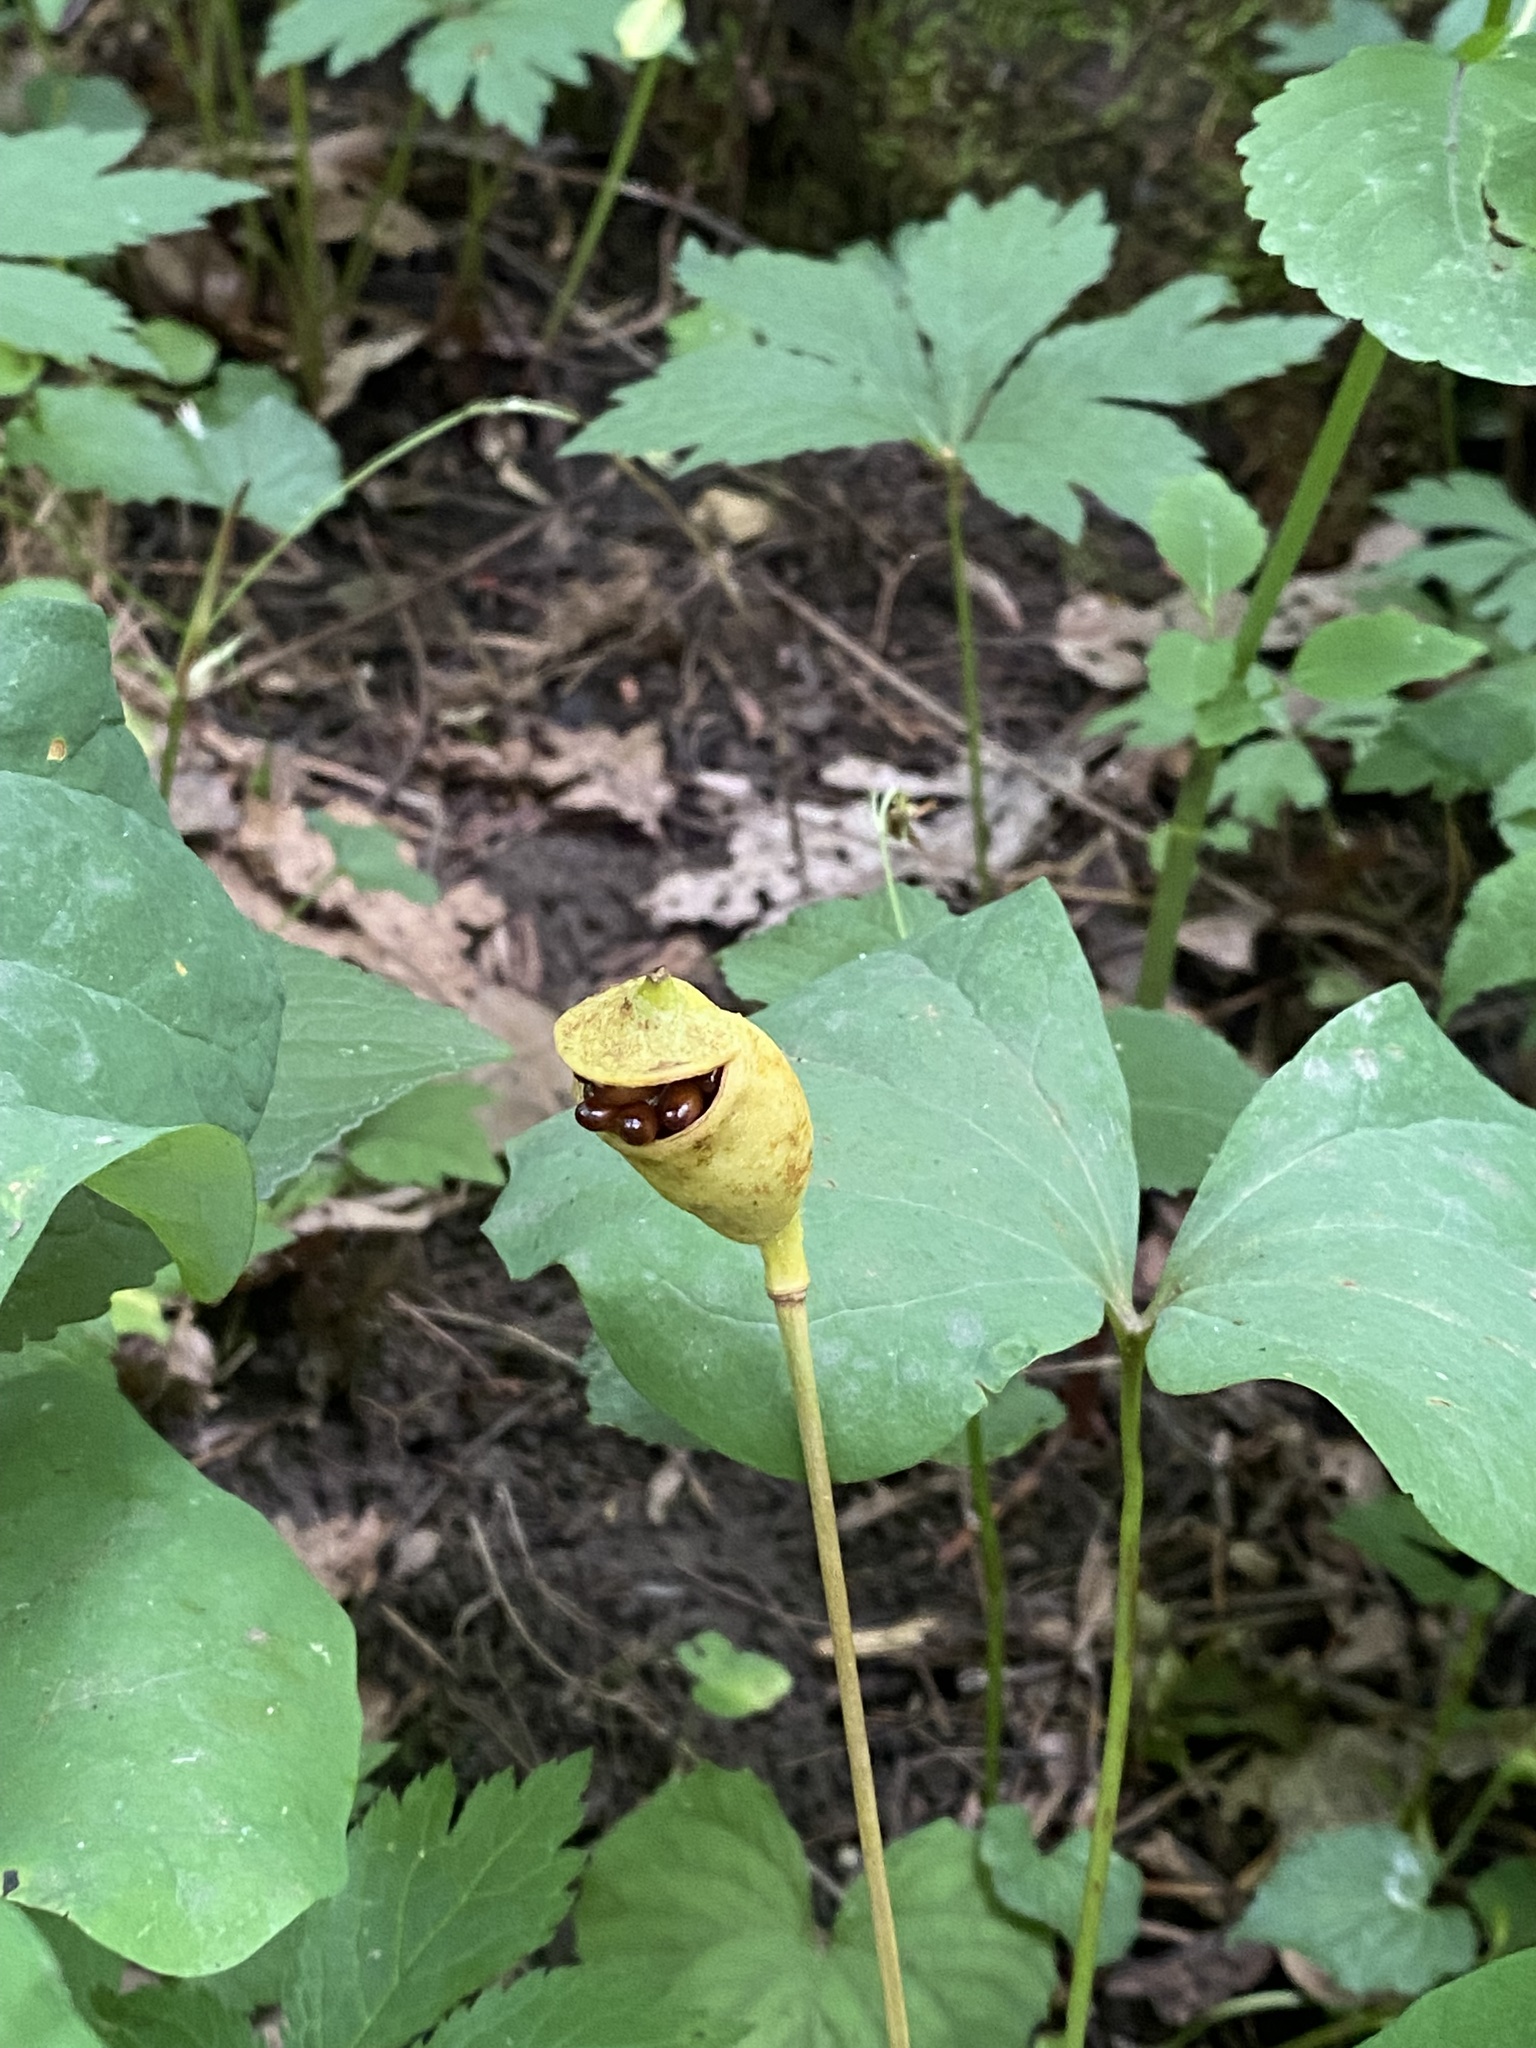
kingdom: Plantae
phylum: Tracheophyta
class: Magnoliopsida
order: Ranunculales
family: Berberidaceae
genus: Jeffersonia
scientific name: Jeffersonia diphylla
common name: Rheumatism-root
